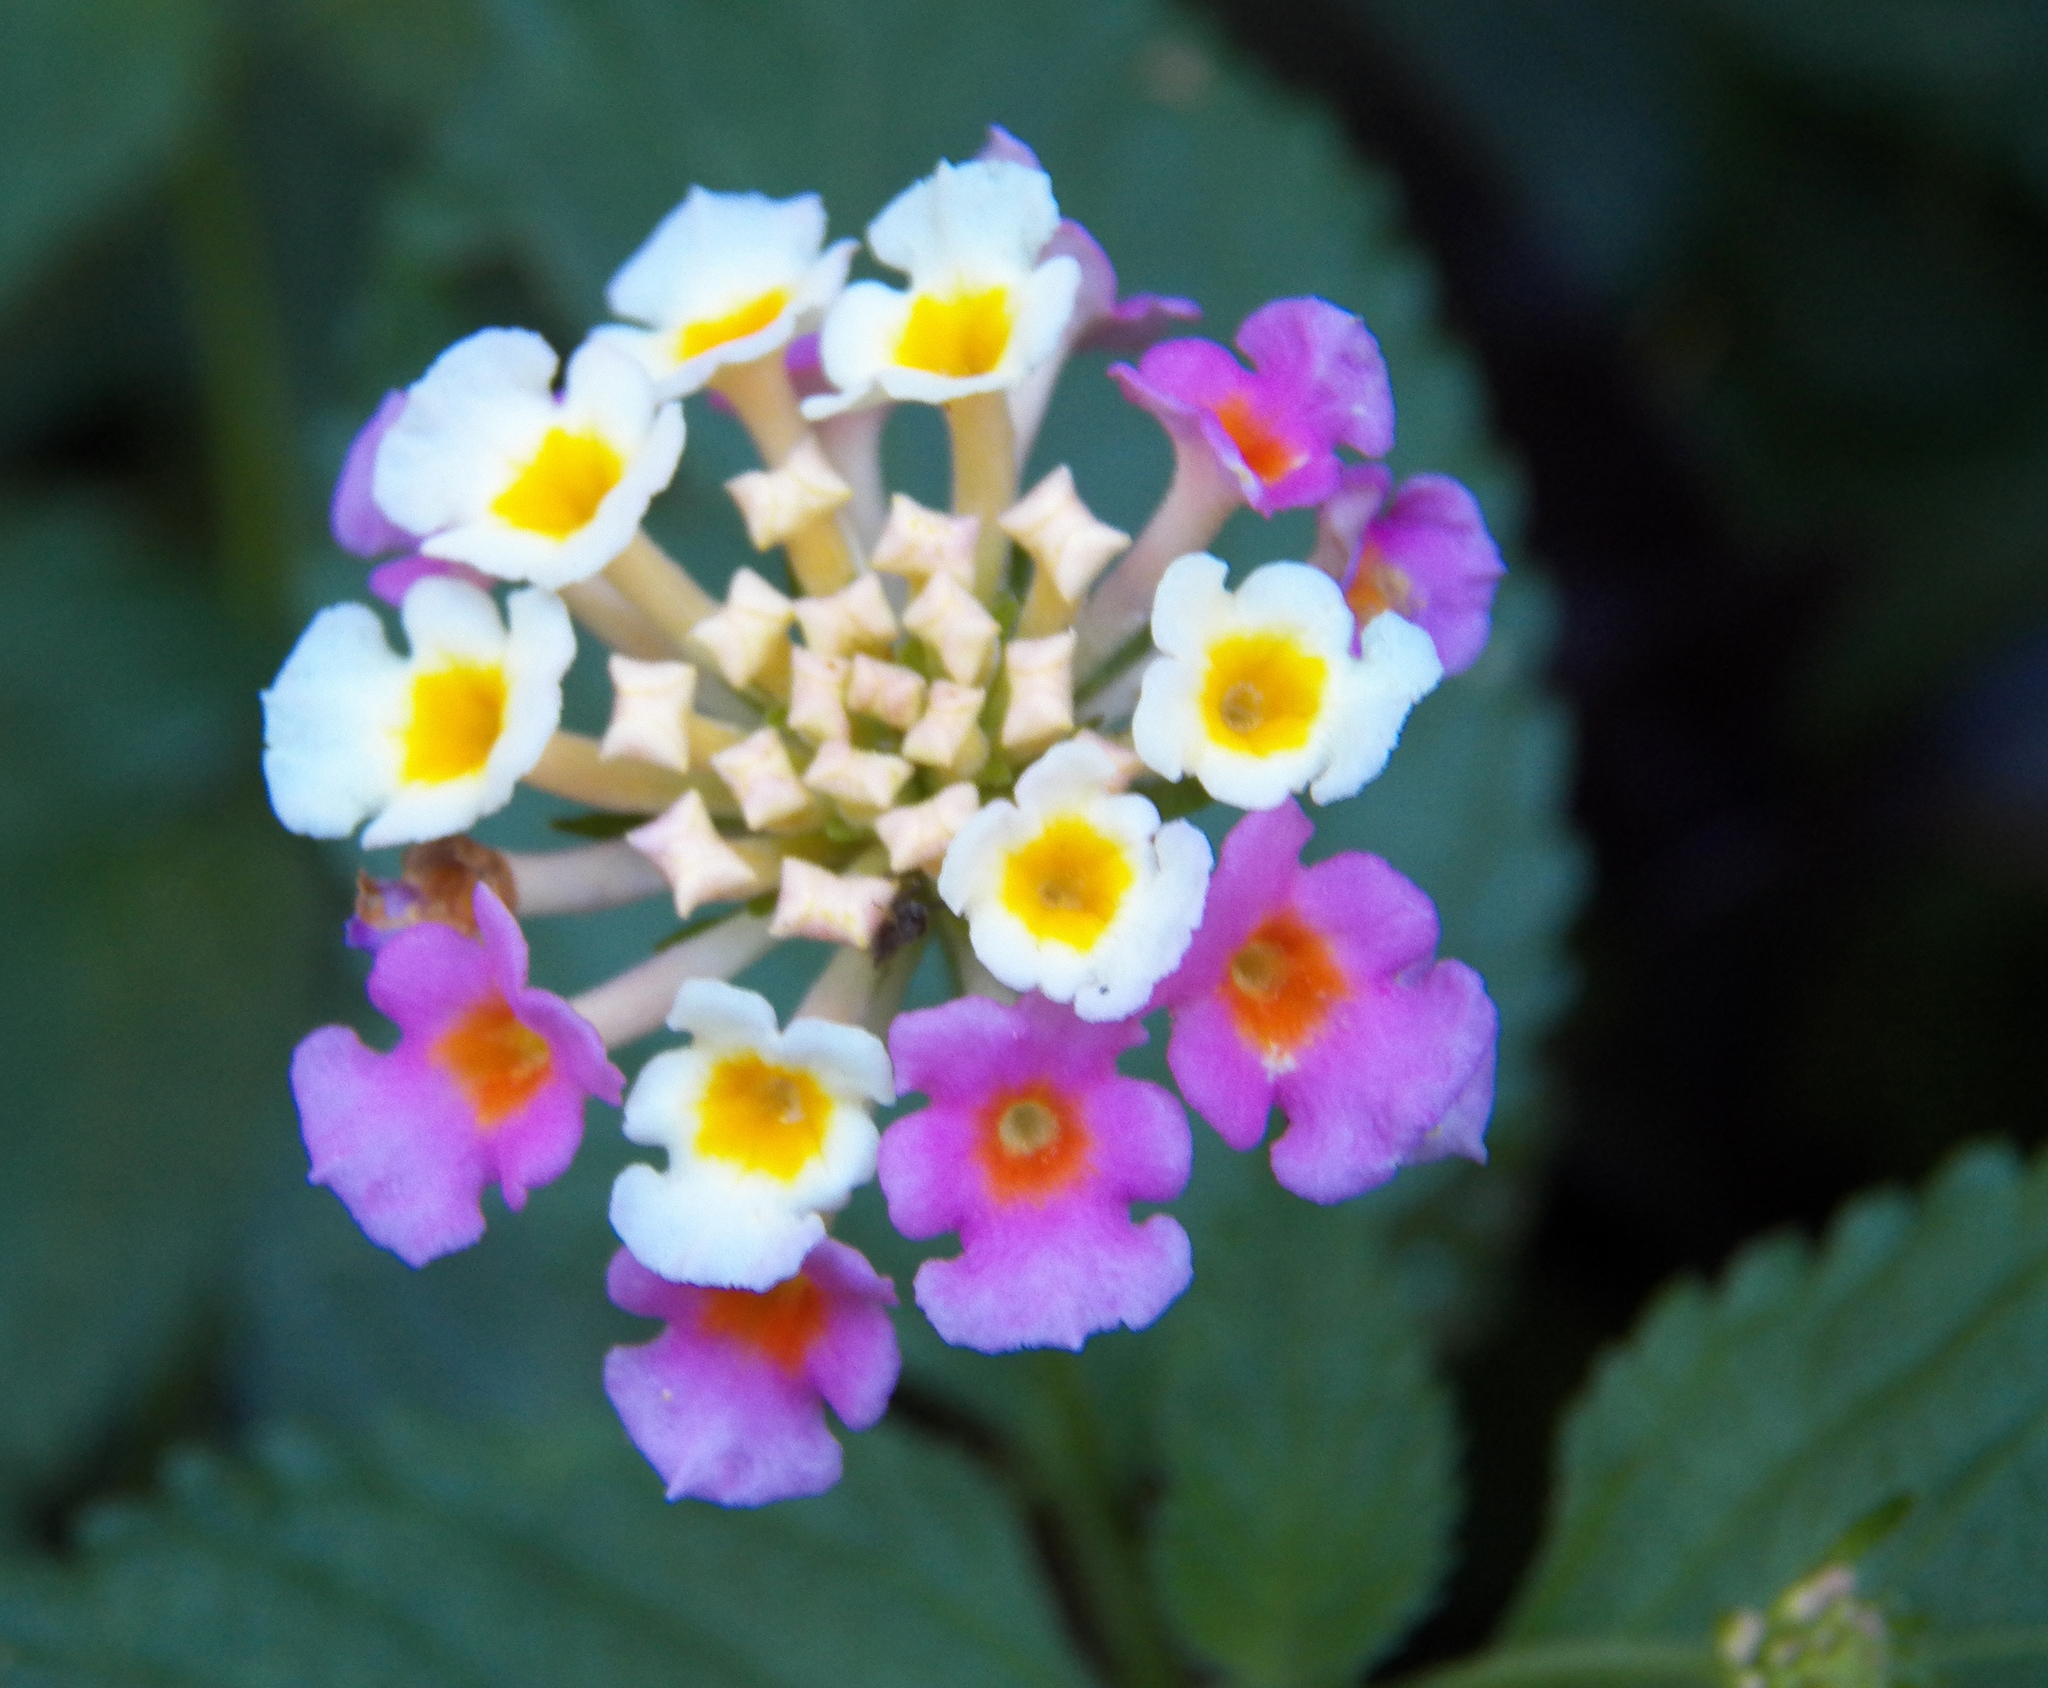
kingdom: Plantae
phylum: Tracheophyta
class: Magnoliopsida
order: Lamiales
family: Verbenaceae
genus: Lantana
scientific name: Lantana strigocamara
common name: Lantana
